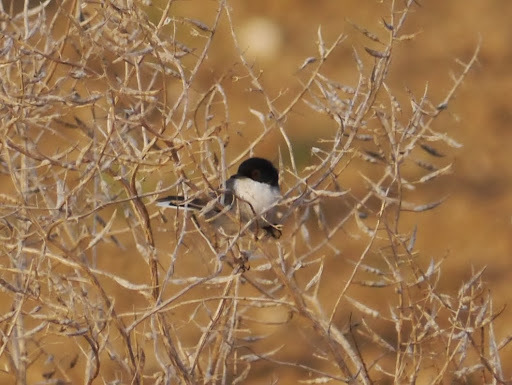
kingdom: Animalia
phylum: Chordata
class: Aves
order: Passeriformes
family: Sylviidae
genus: Curruca
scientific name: Curruca melanocephala
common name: Sardinian warbler
